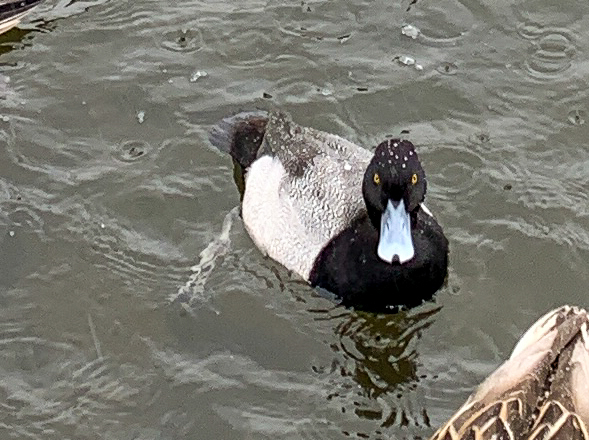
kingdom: Animalia
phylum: Chordata
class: Aves
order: Anseriformes
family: Anatidae
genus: Aythya
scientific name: Aythya affinis
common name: Lesser scaup
